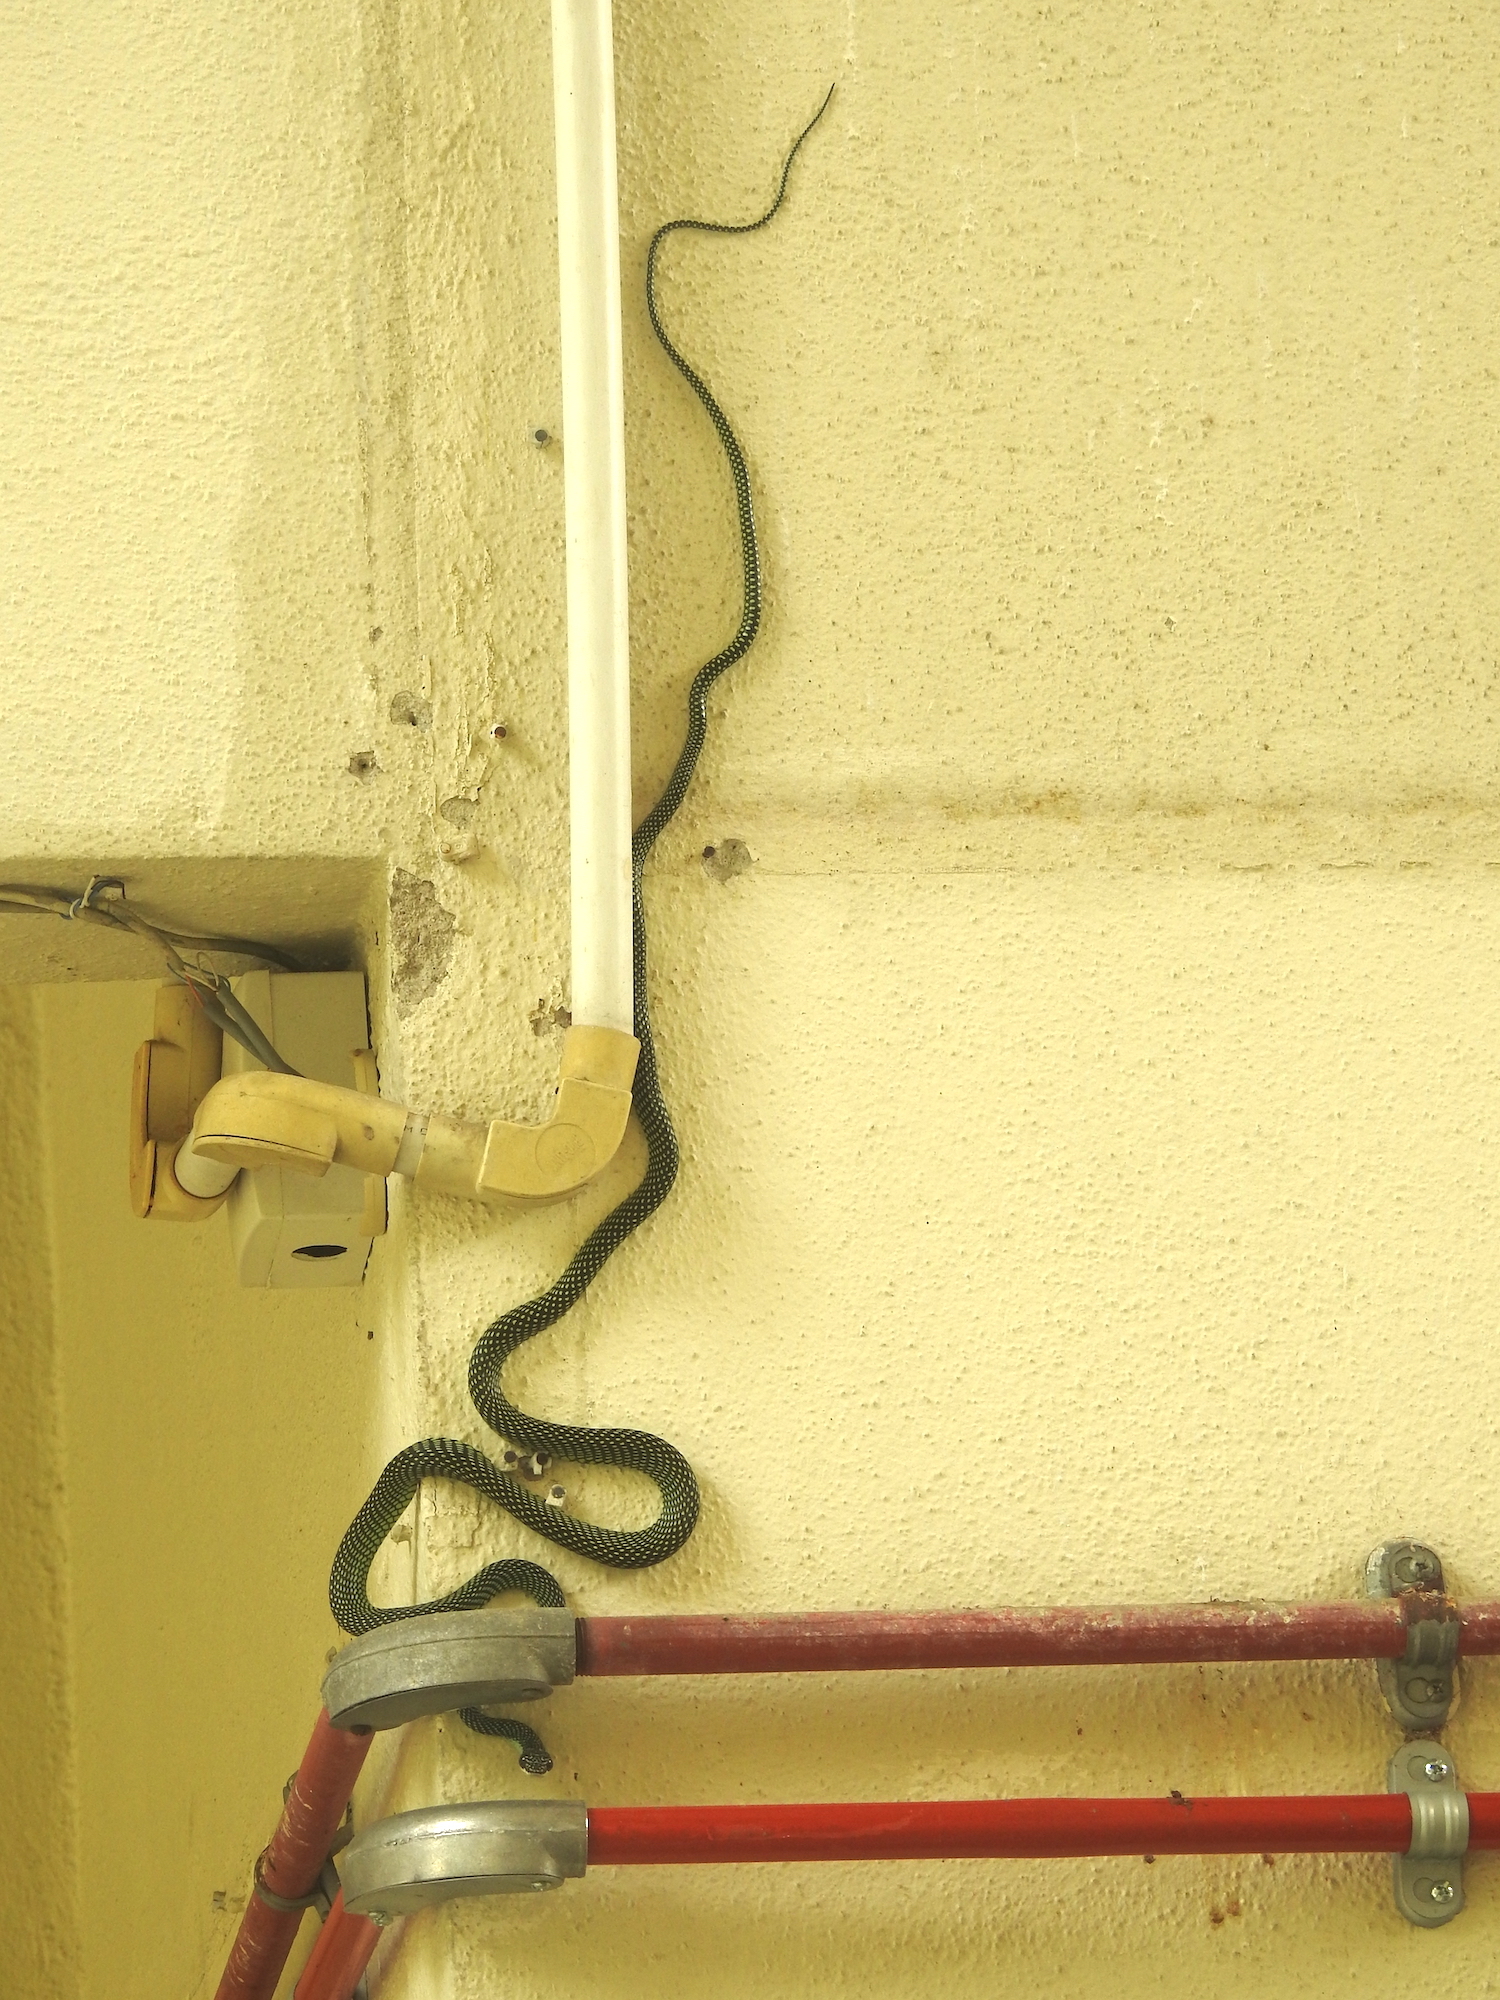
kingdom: Animalia
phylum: Chordata
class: Squamata
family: Colubridae
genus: Chrysopelea
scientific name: Chrysopelea paradisi
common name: Paradise tree snake
